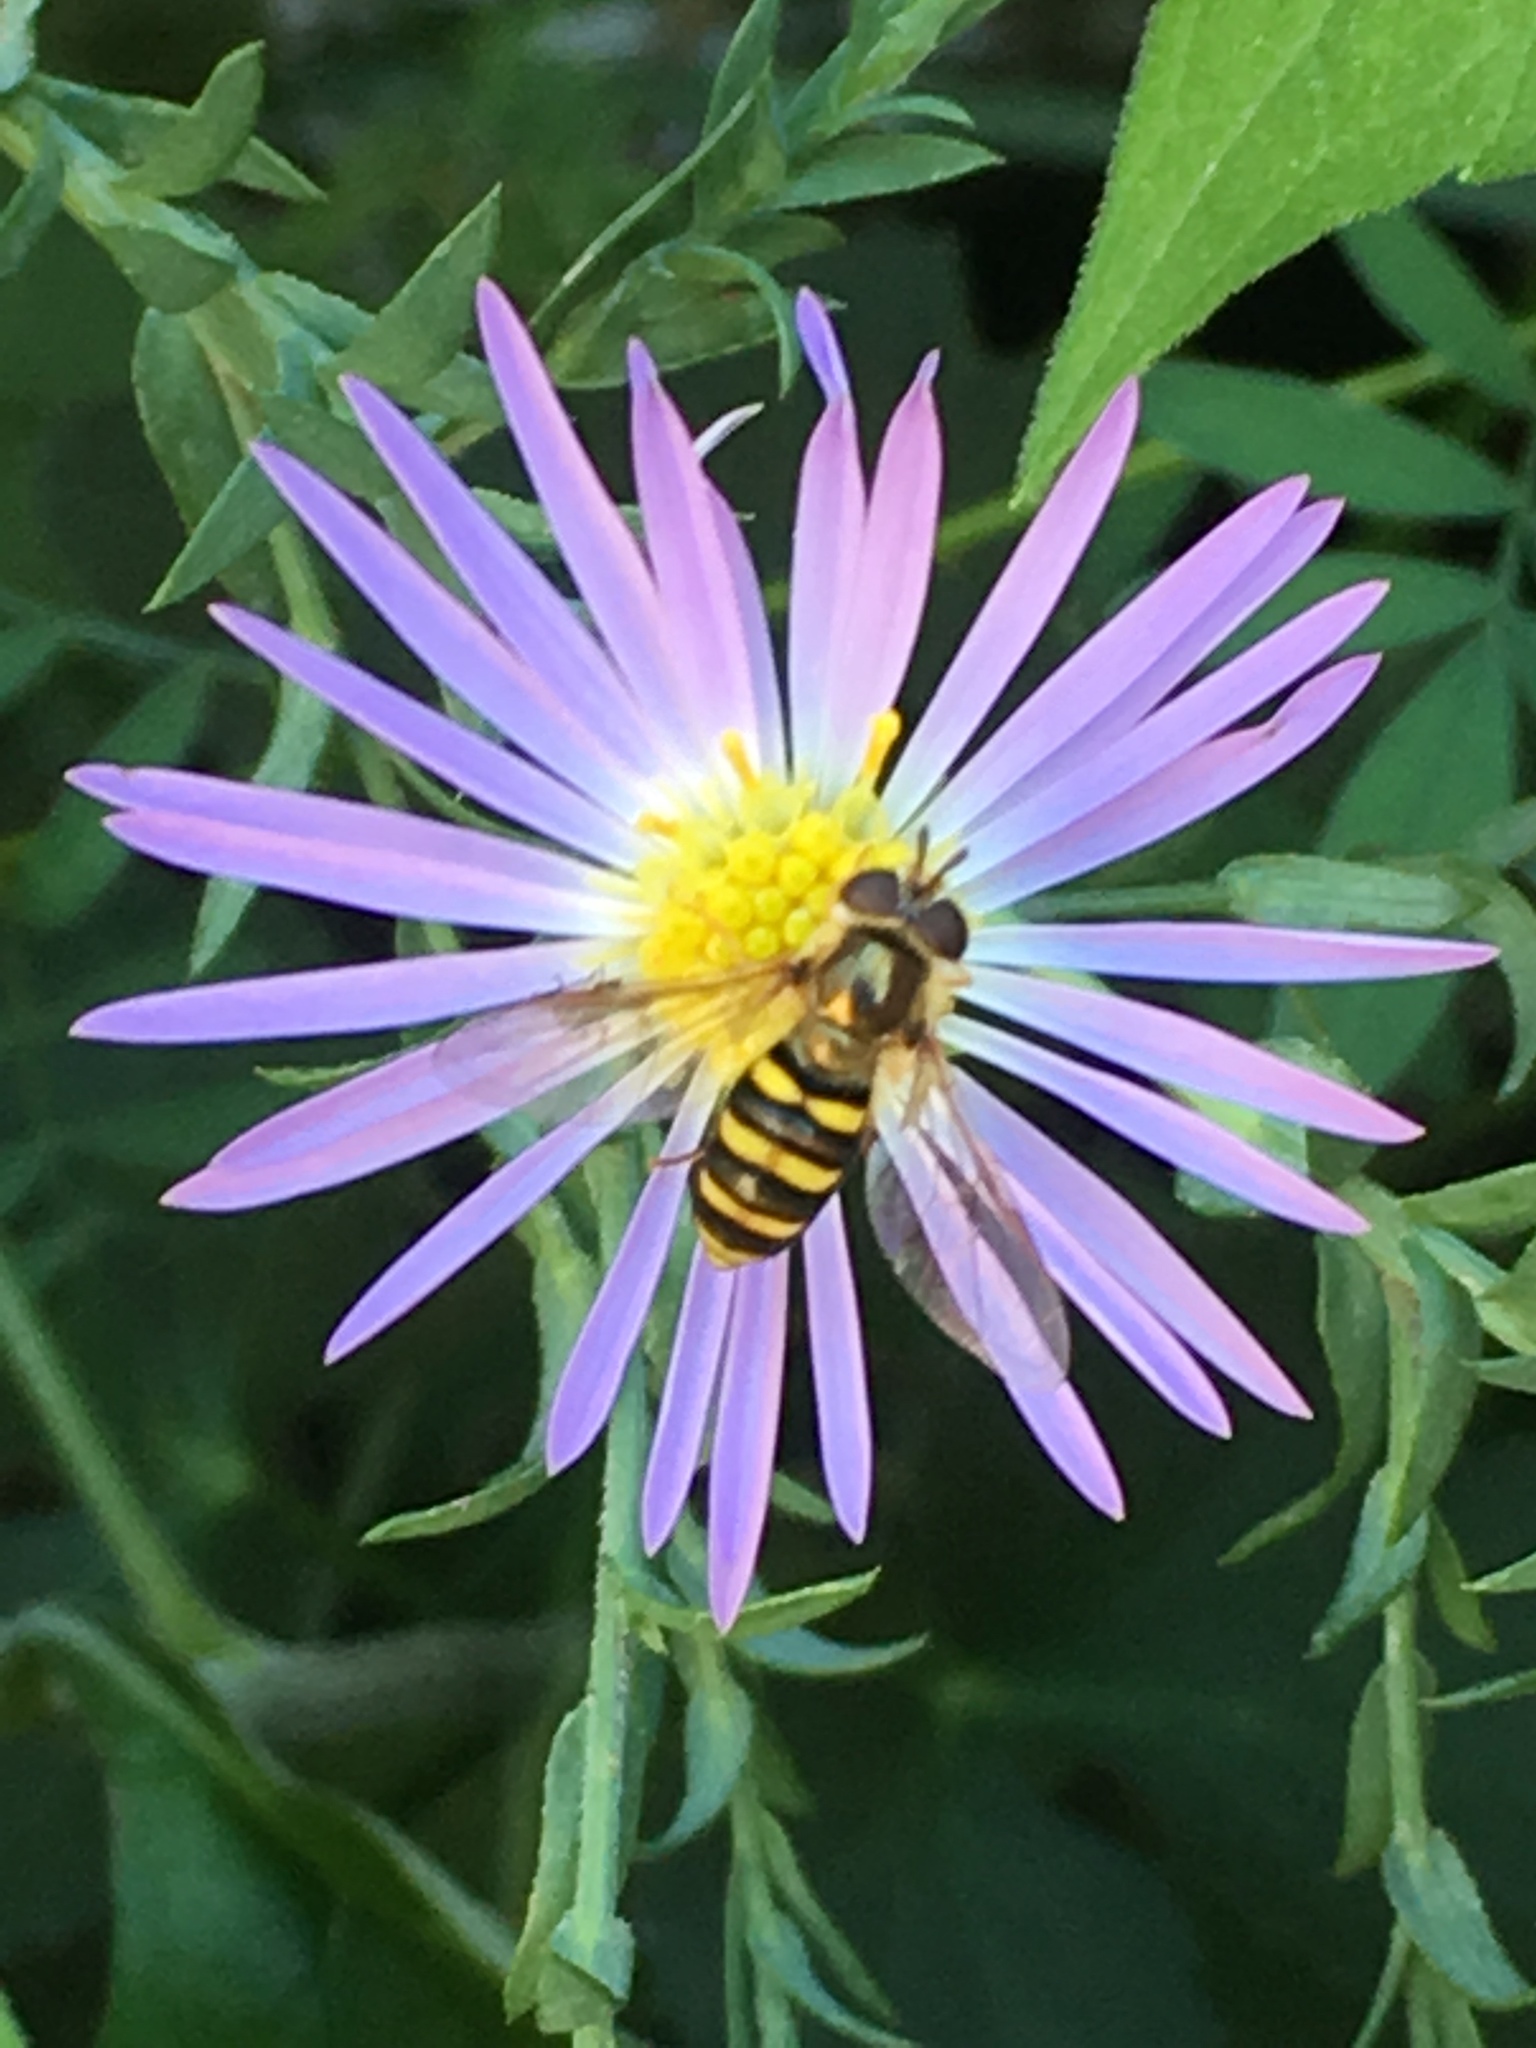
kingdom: Animalia
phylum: Arthropoda
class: Insecta
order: Diptera
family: Syrphidae
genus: Eupeodes
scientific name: Eupeodes
